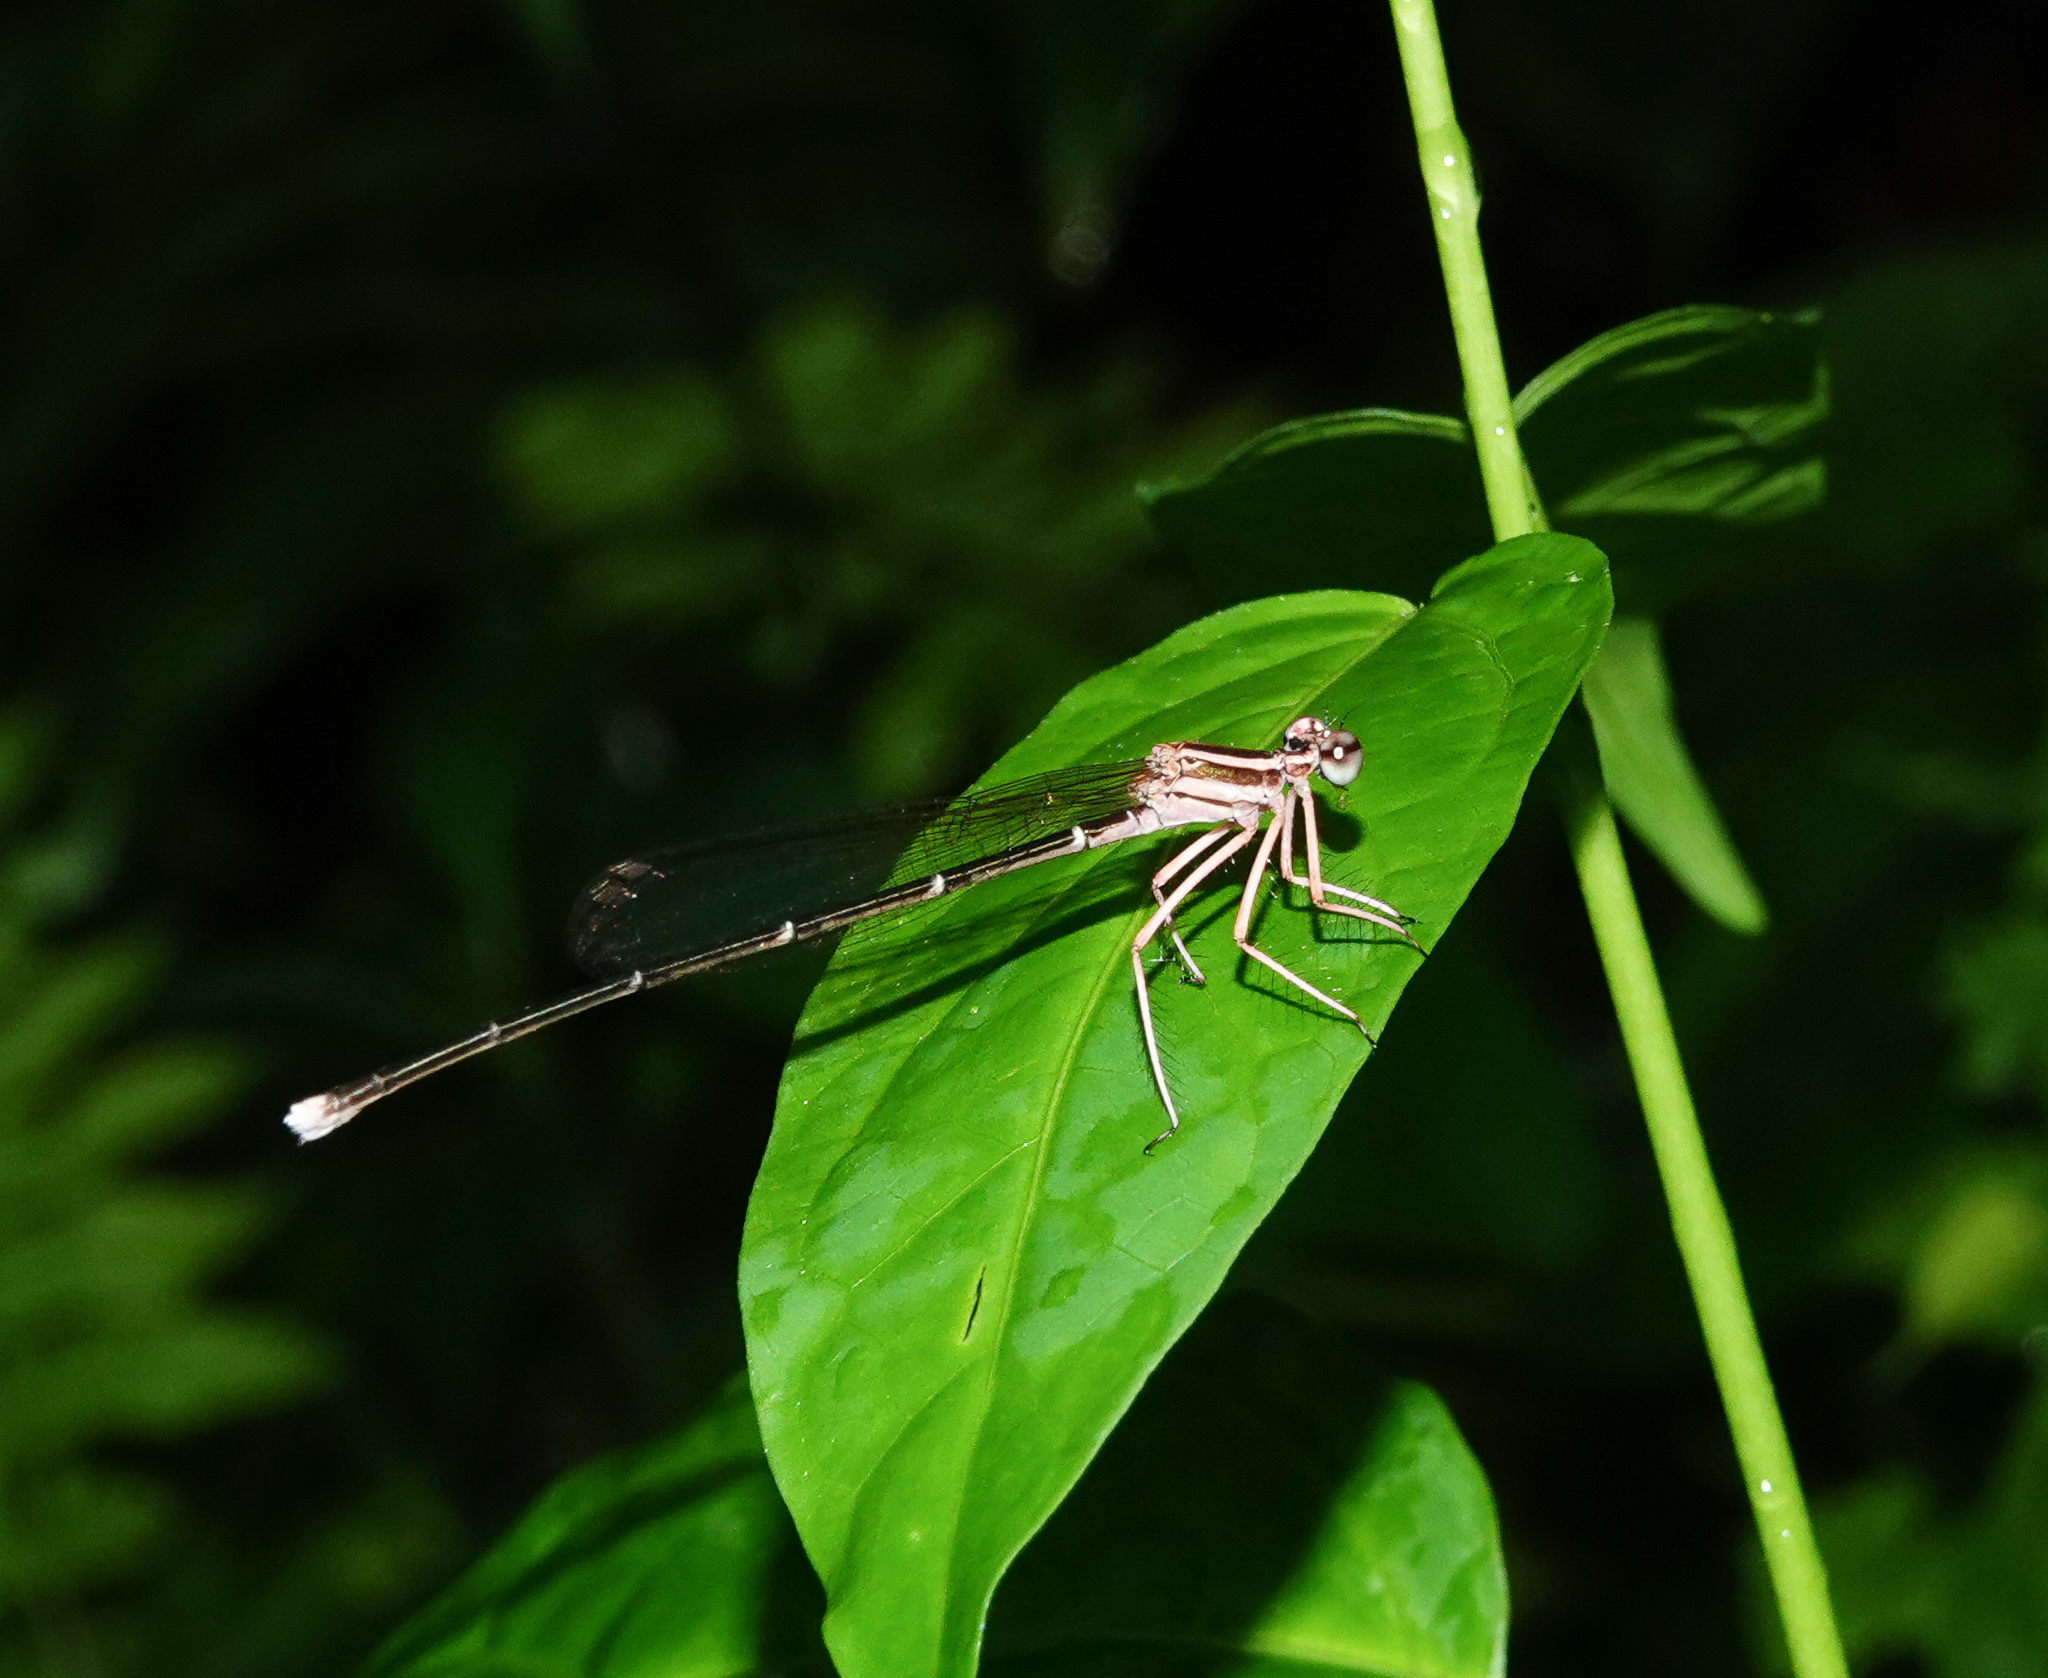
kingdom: Animalia
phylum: Arthropoda
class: Insecta
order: Odonata
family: Platycnemididae
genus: Pseudocopera
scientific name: Pseudocopera ciliata
